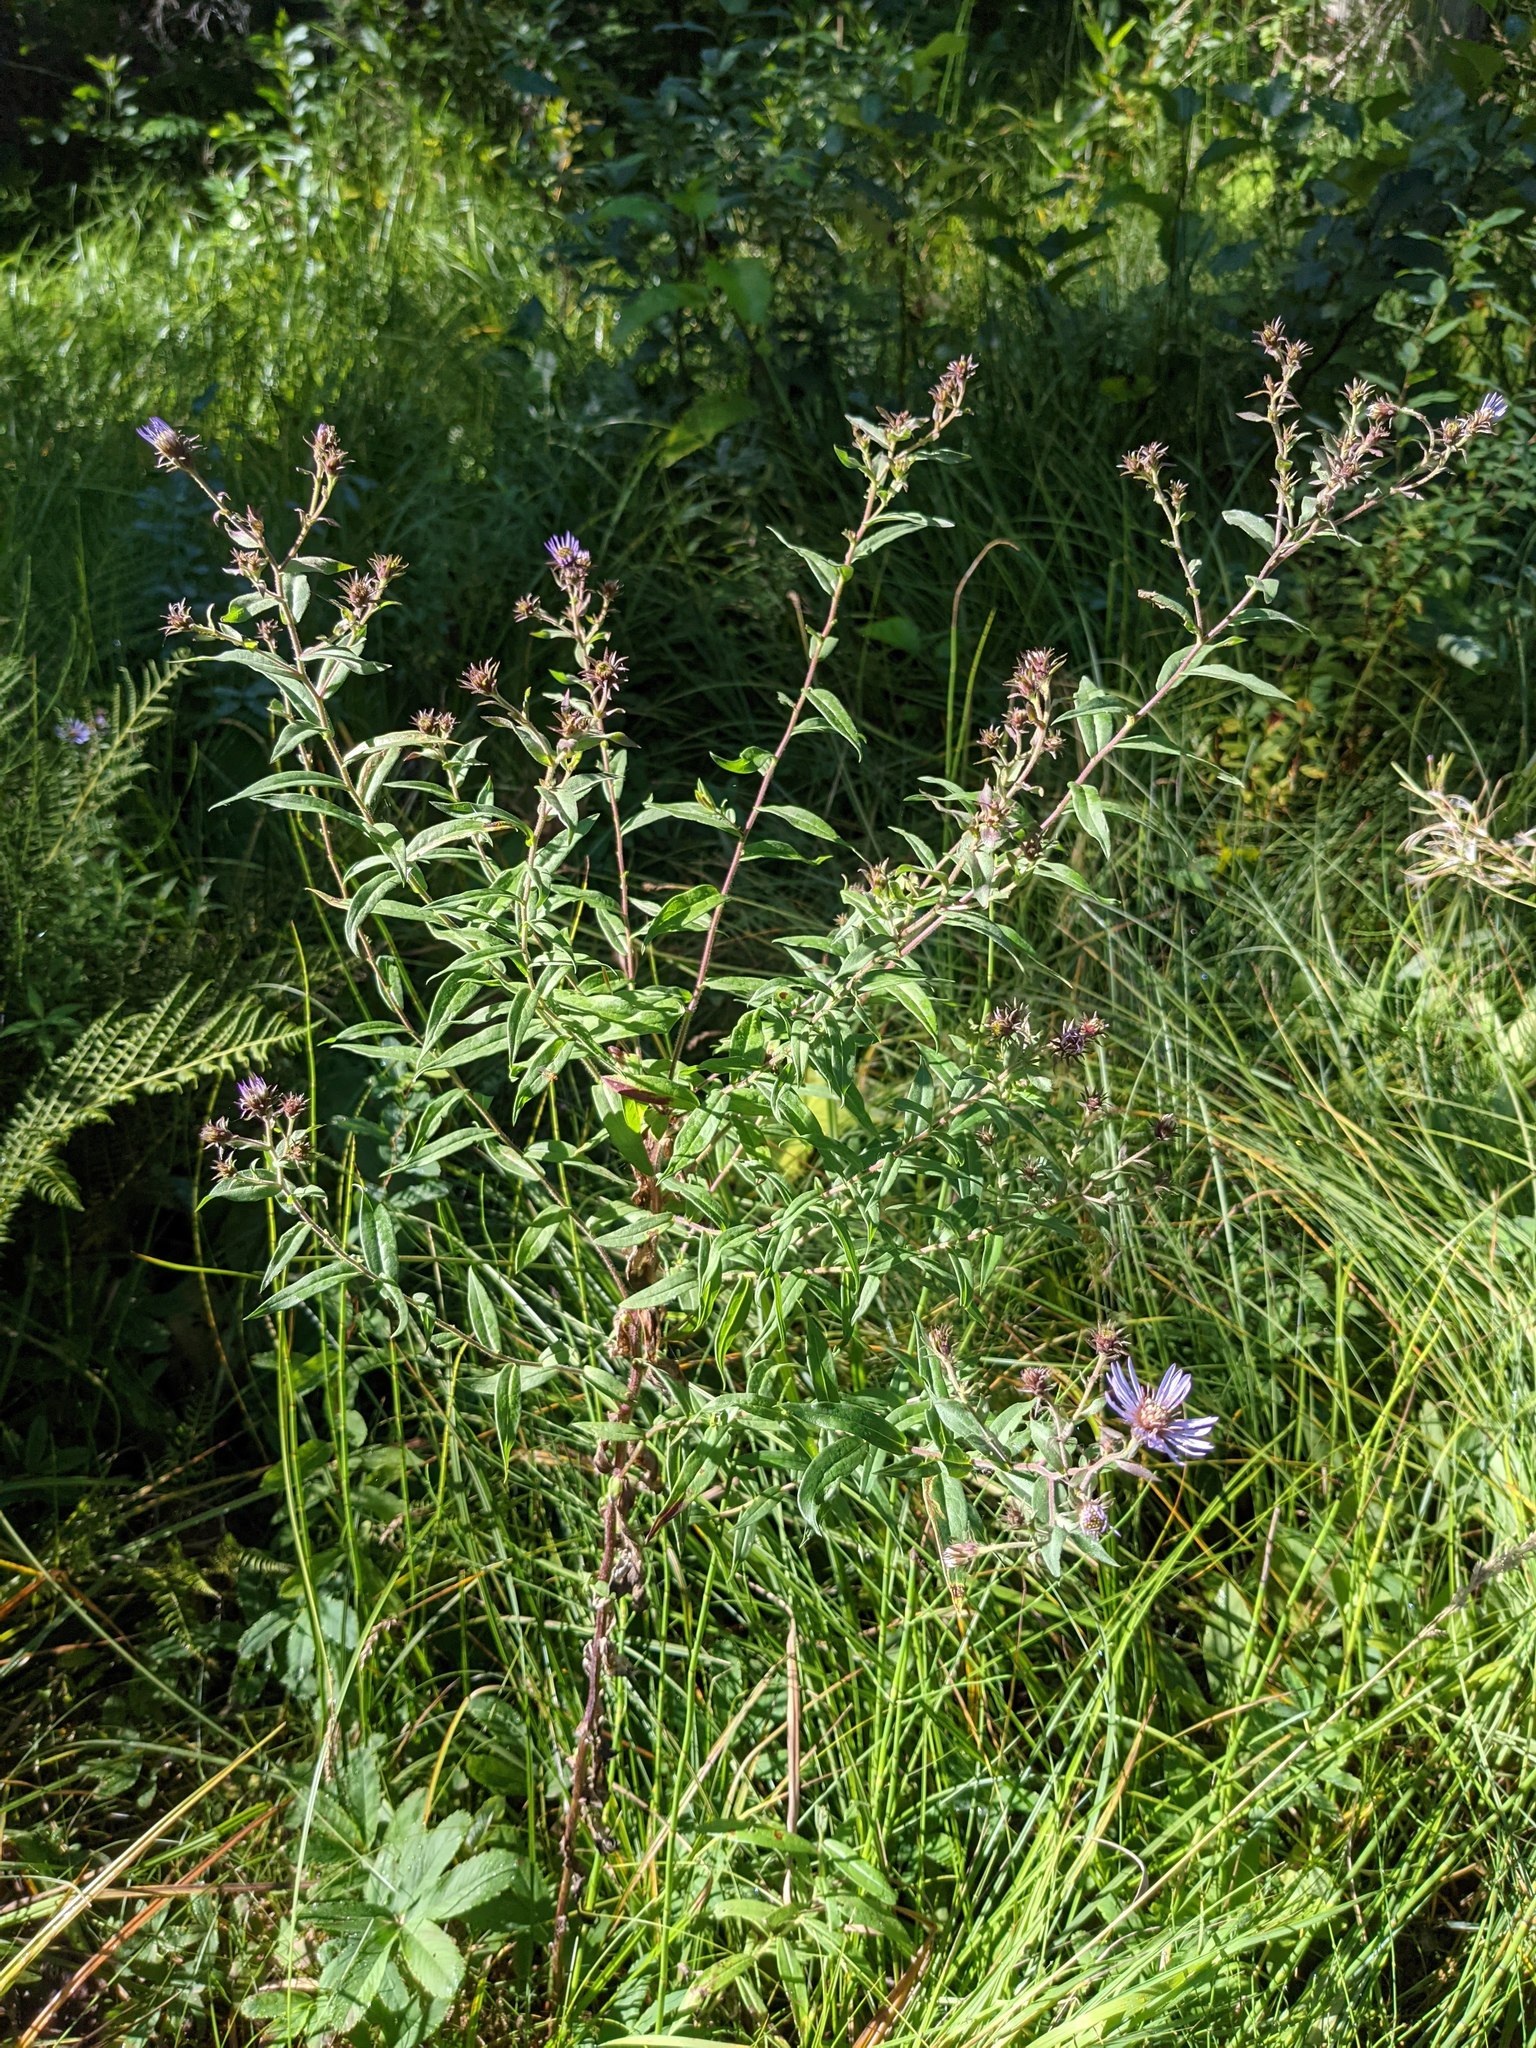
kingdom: Plantae
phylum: Tracheophyta
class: Magnoliopsida
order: Asterales
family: Asteraceae
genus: Canadanthus
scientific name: Canadanthus modestus
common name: Great northern aster
